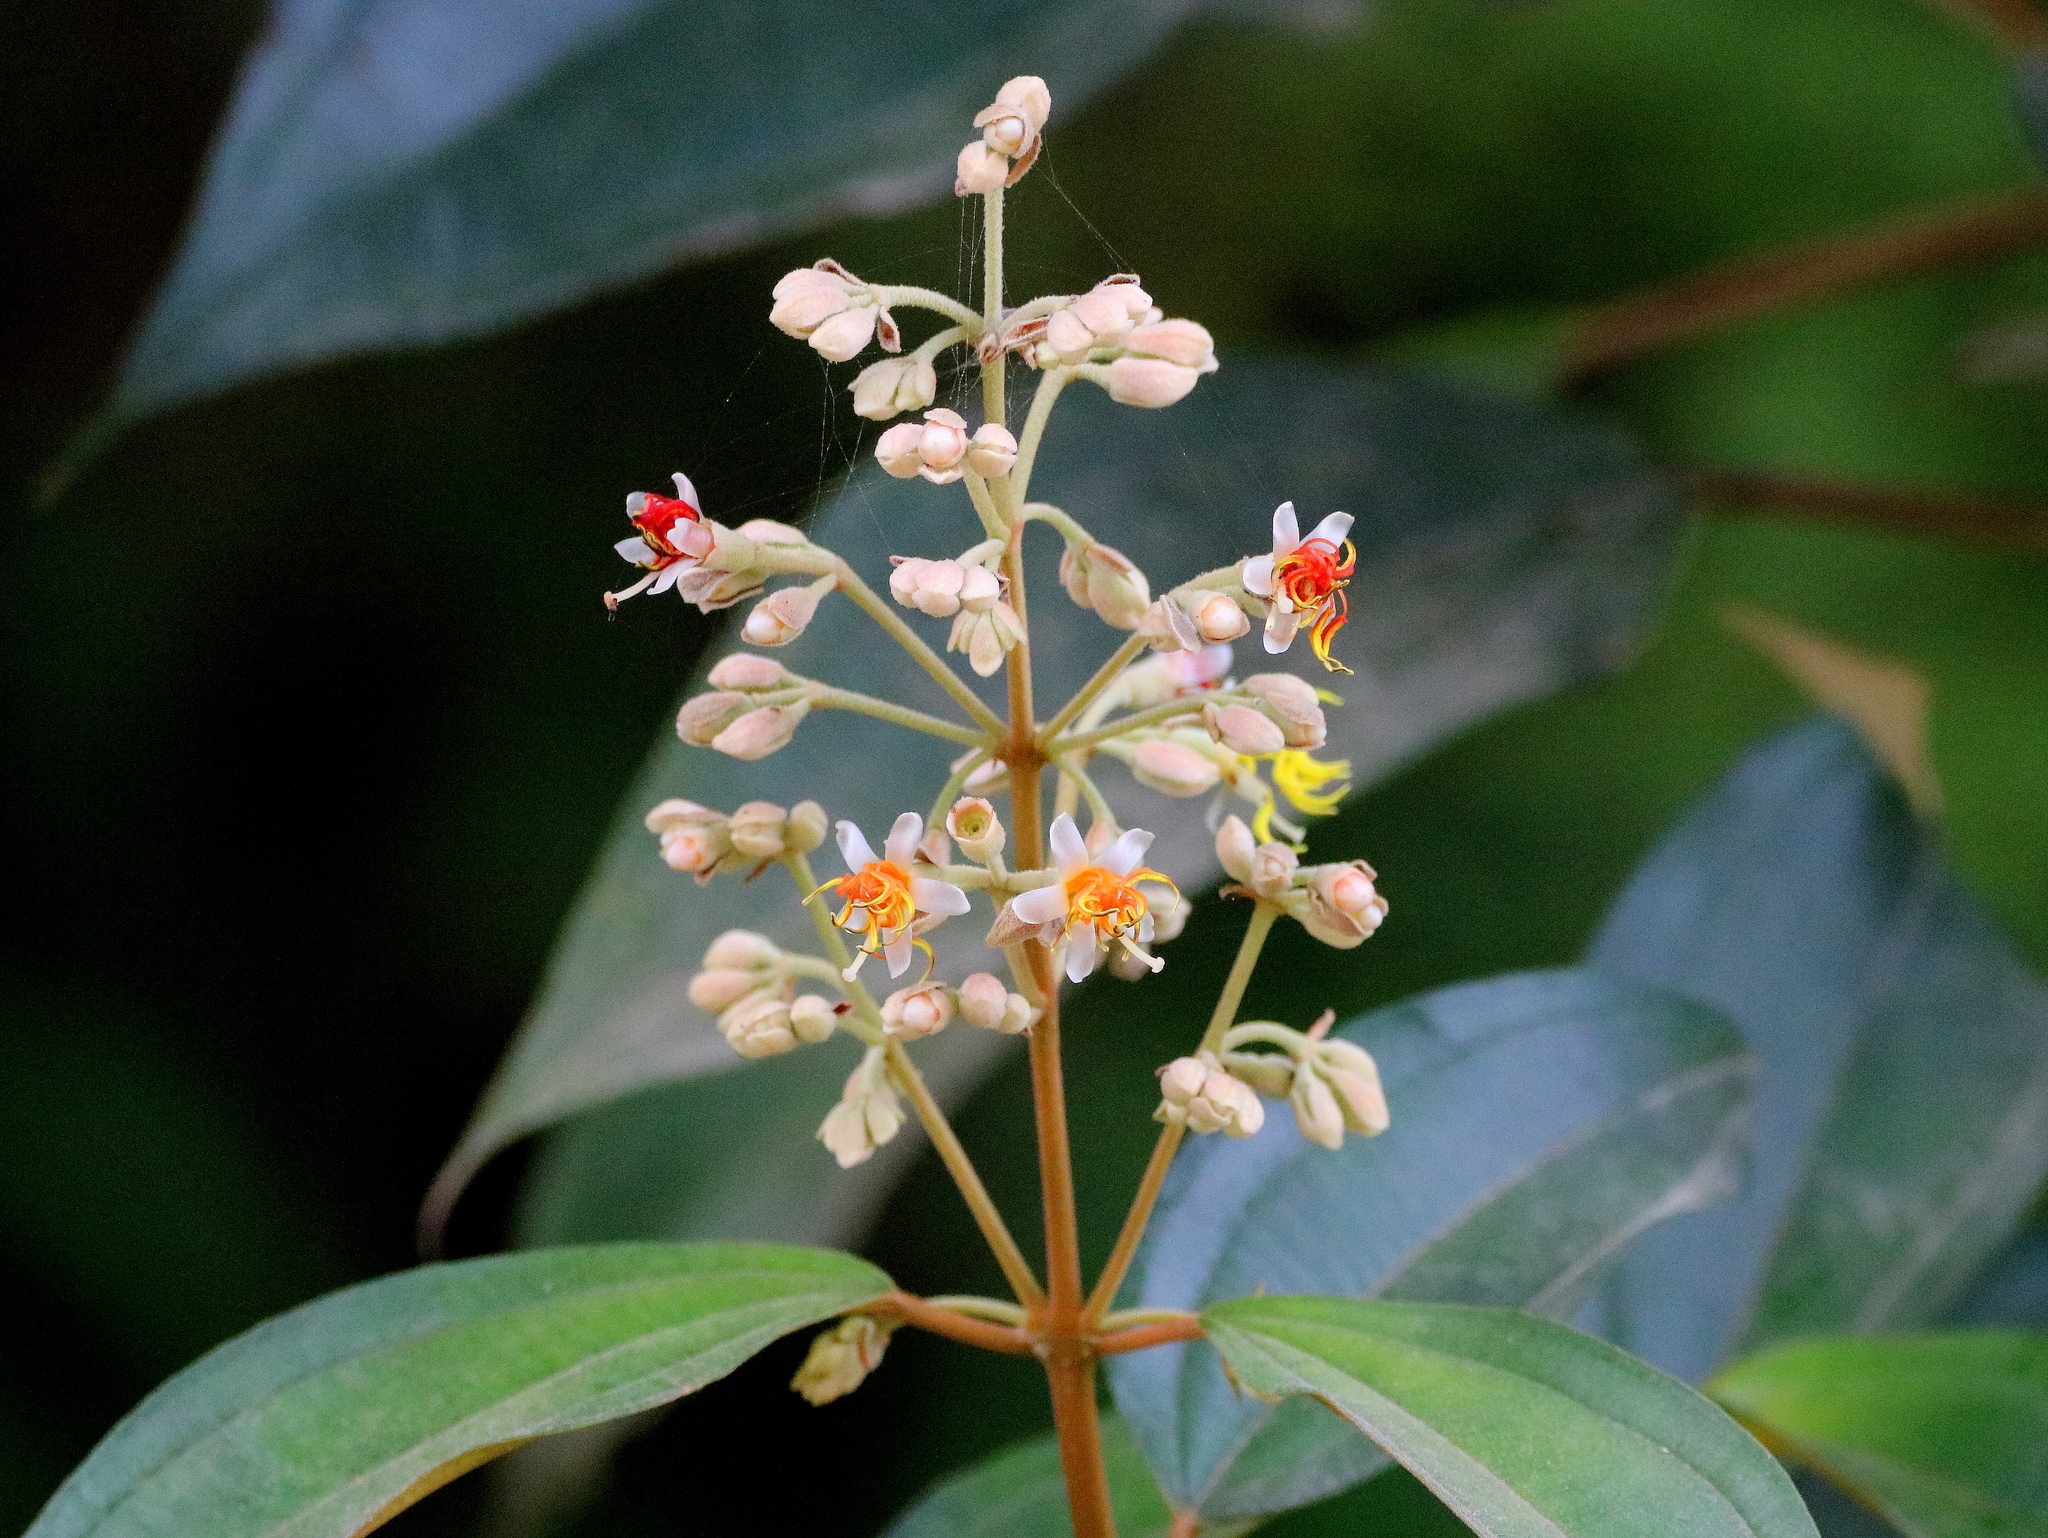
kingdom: Plantae
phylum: Tracheophyta
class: Magnoliopsida
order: Myrtales
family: Melastomataceae
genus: Miconia
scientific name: Miconia dodecandra
